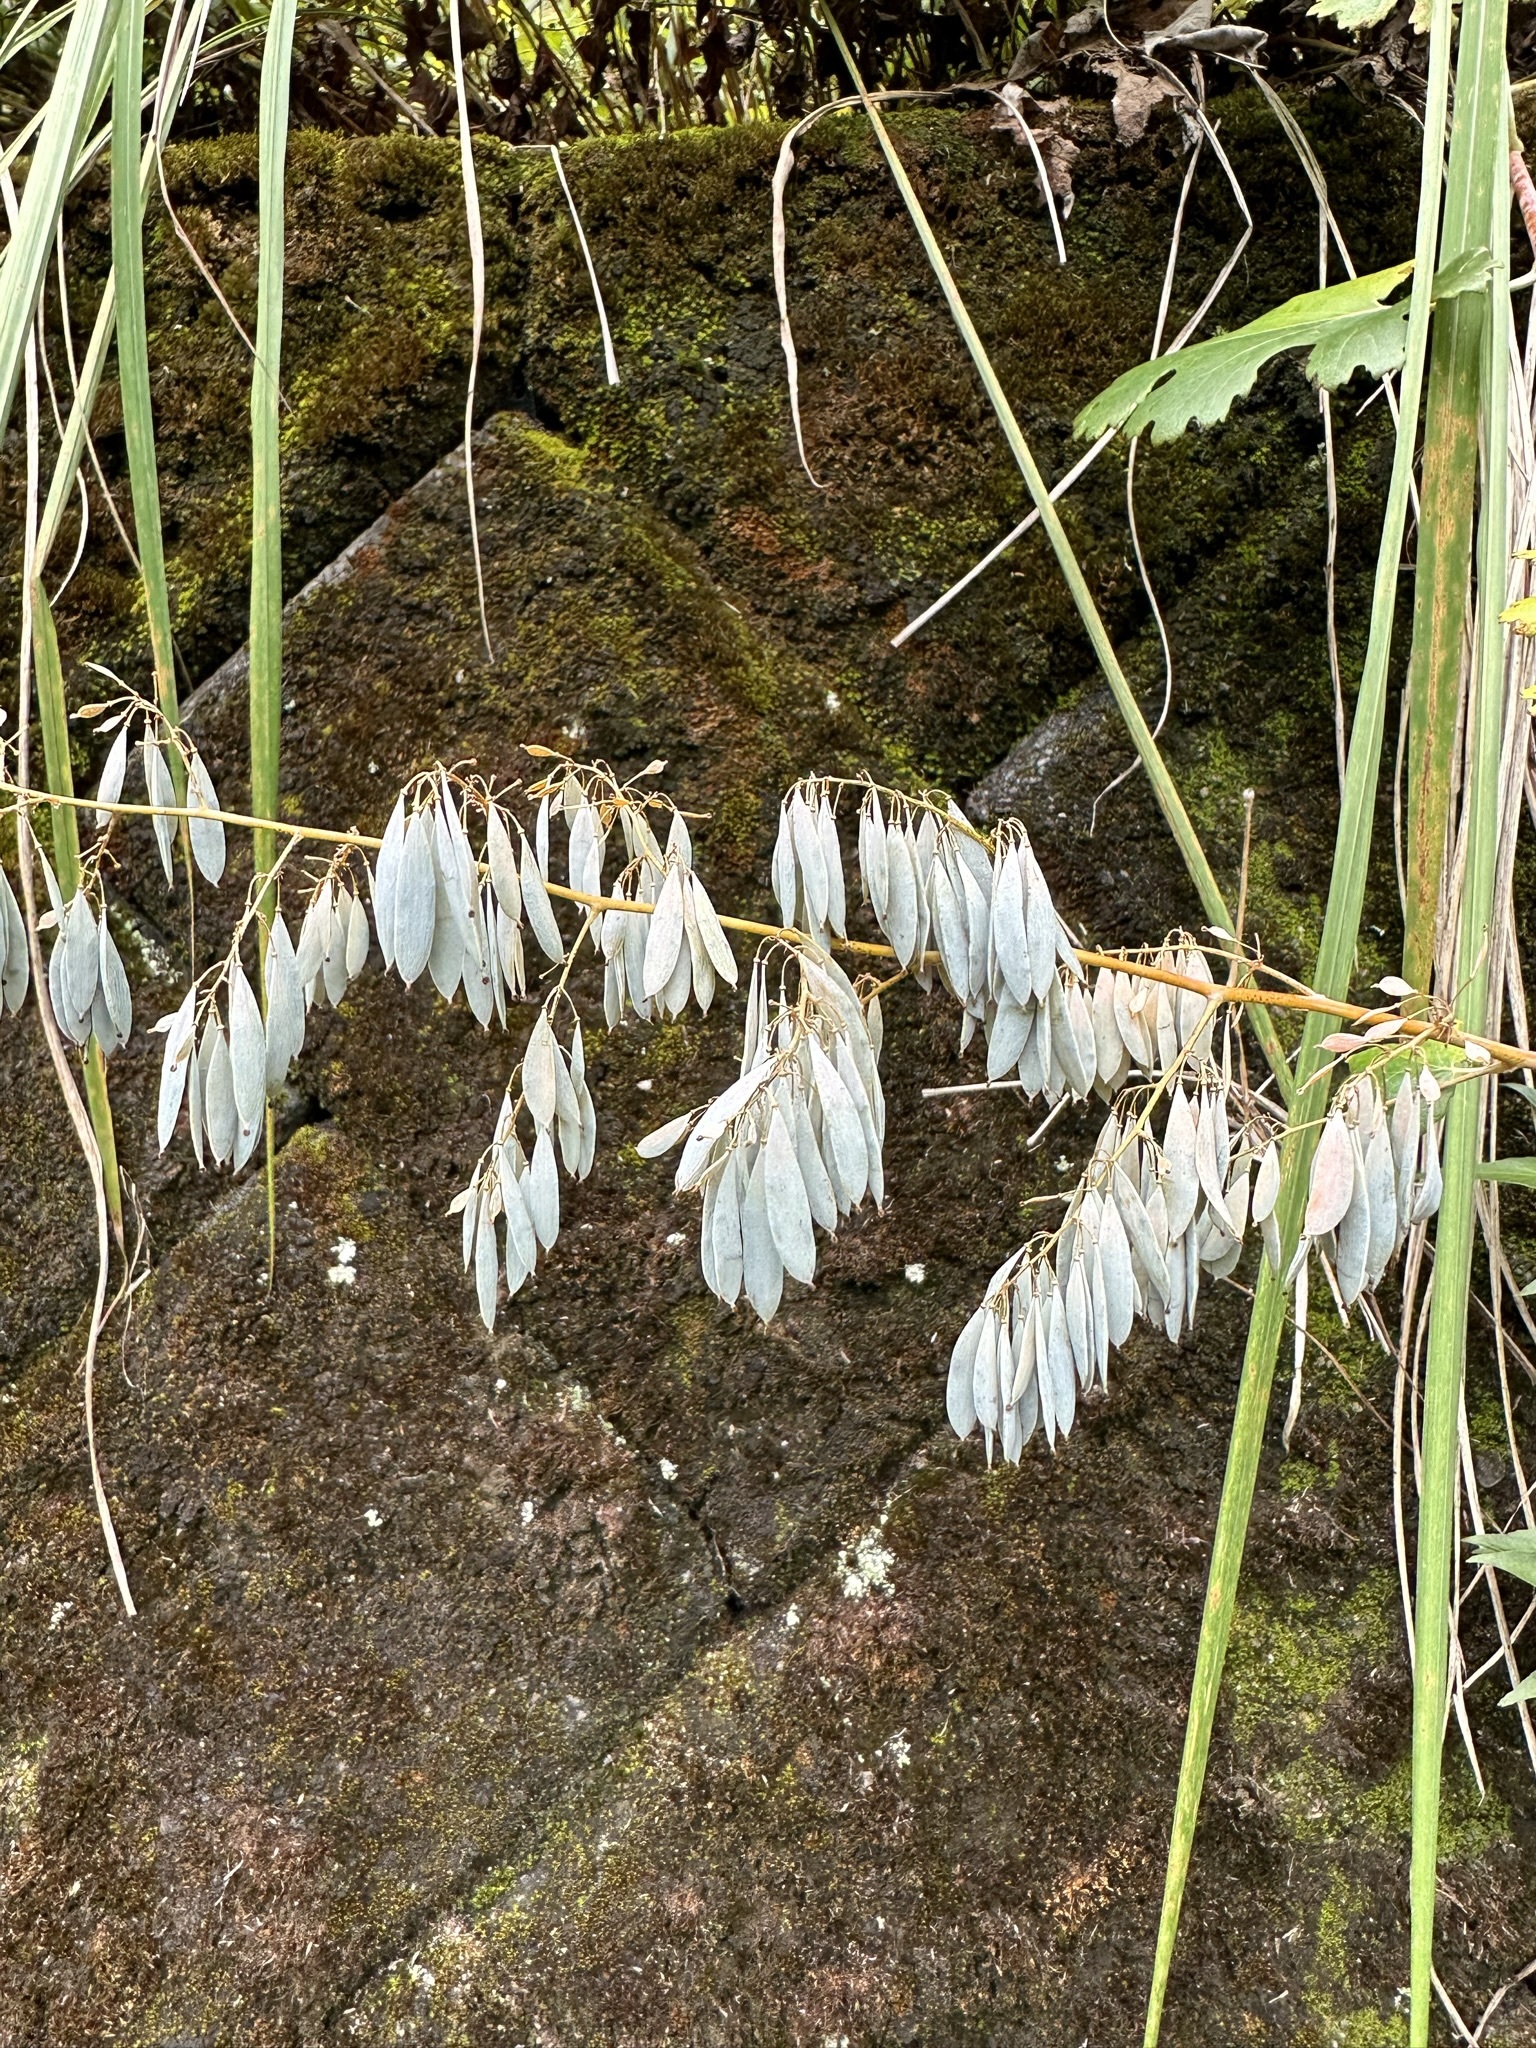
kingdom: Plantae
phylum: Tracheophyta
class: Magnoliopsida
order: Ranunculales
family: Papaveraceae
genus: Macleaya
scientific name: Macleaya cordata
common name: Plume poppy
